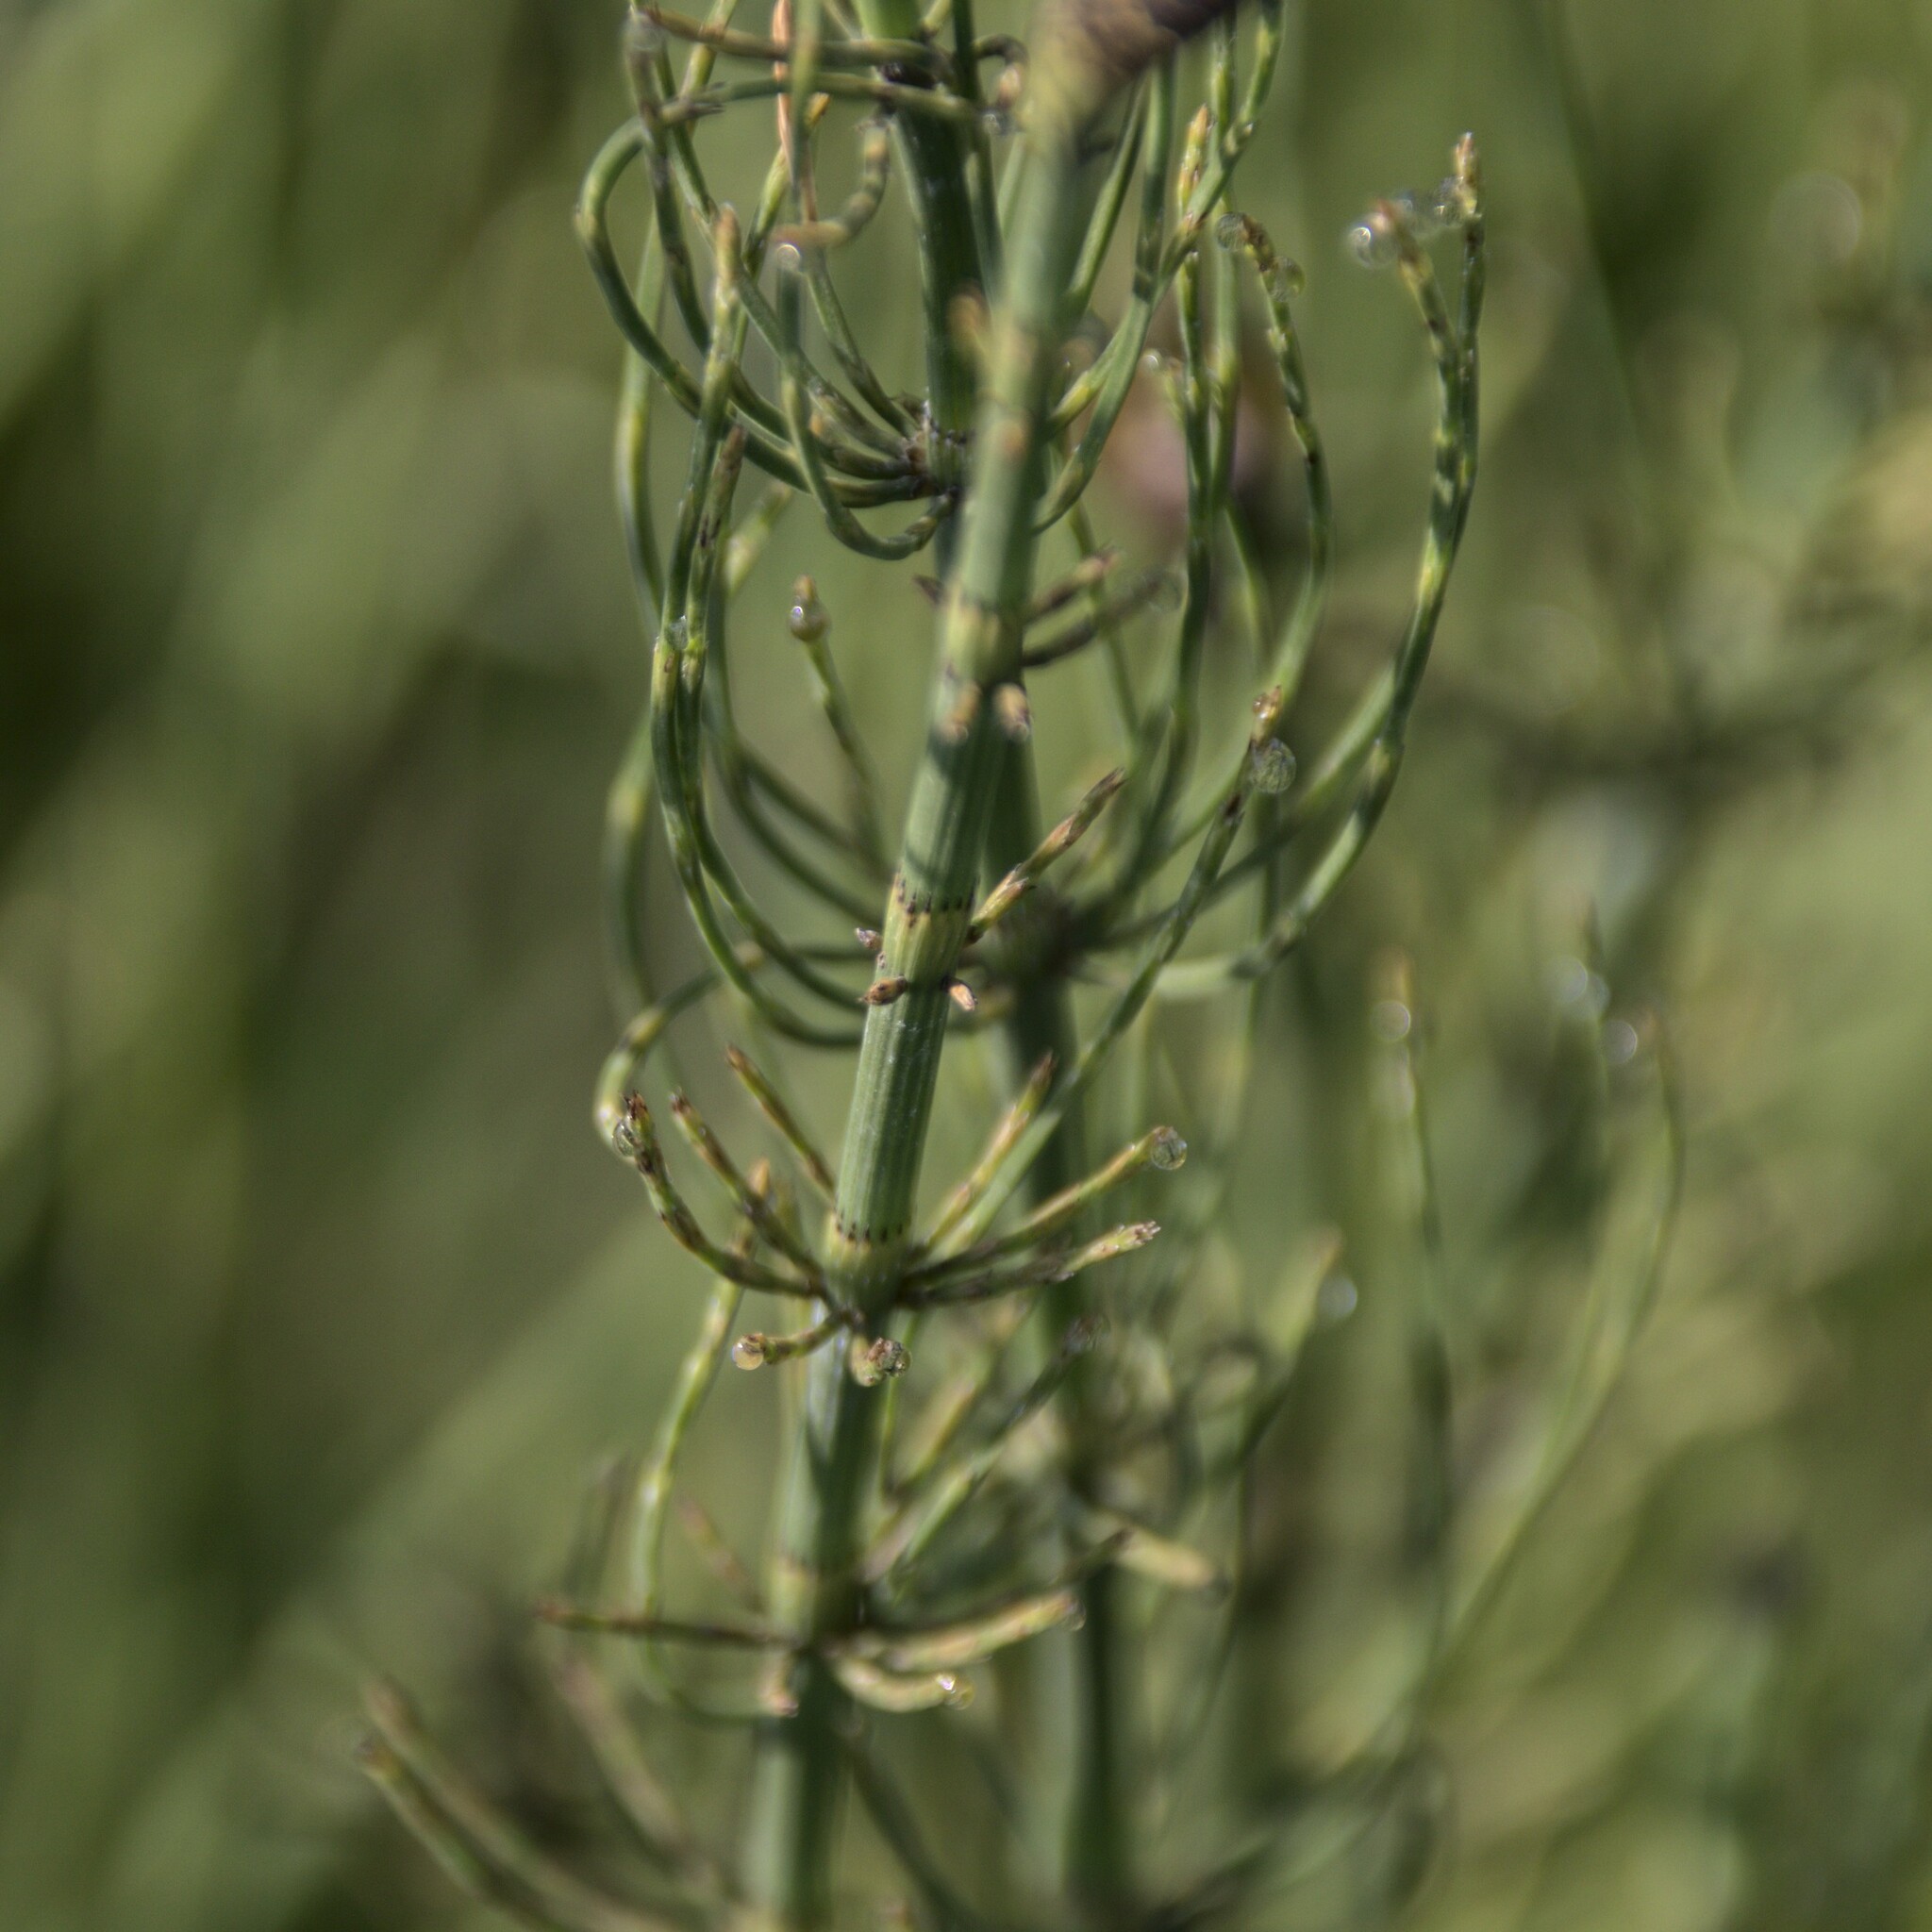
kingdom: Plantae
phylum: Tracheophyta
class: Polypodiopsida
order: Equisetales
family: Equisetaceae
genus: Equisetum
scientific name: Equisetum fluviatile
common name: Water horsetail
